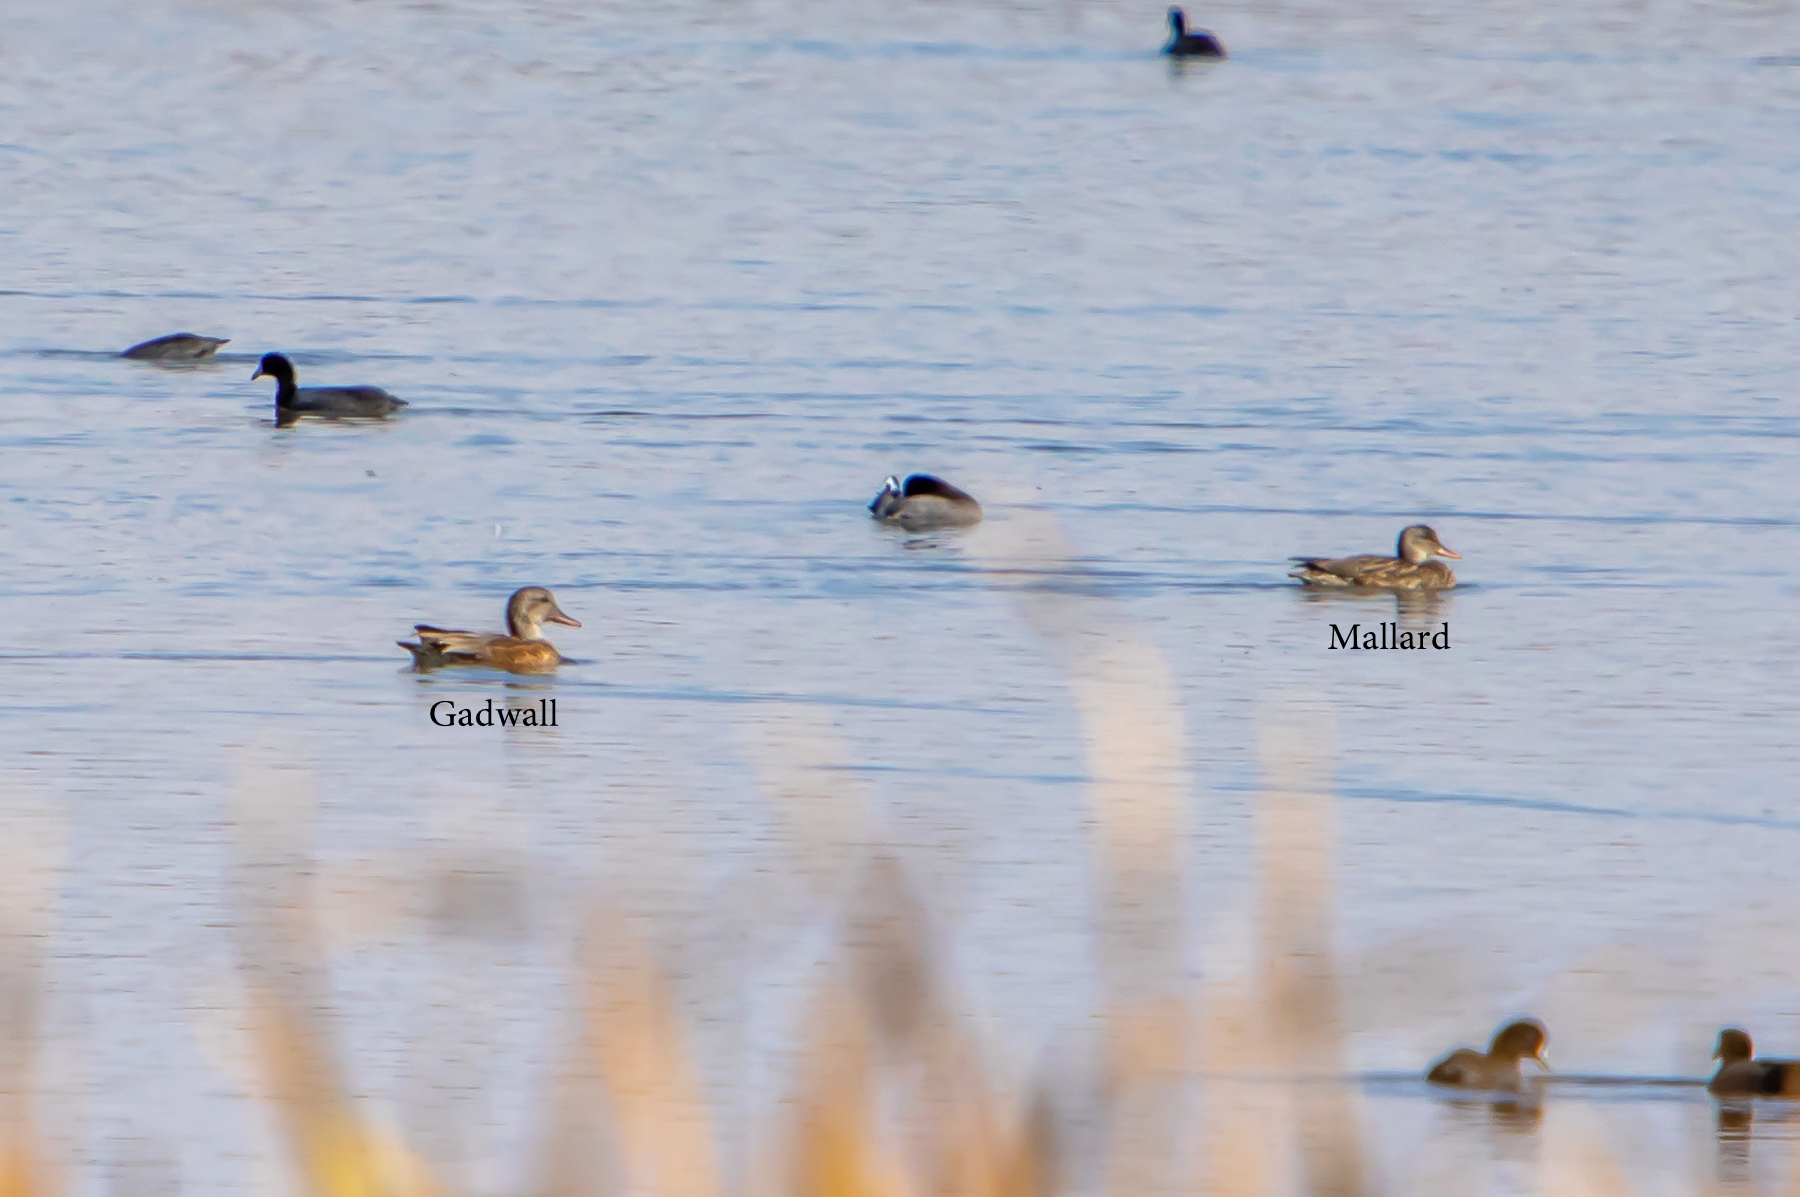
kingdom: Animalia
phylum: Chordata
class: Aves
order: Anseriformes
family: Anatidae
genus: Mareca
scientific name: Mareca strepera
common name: Gadwall
